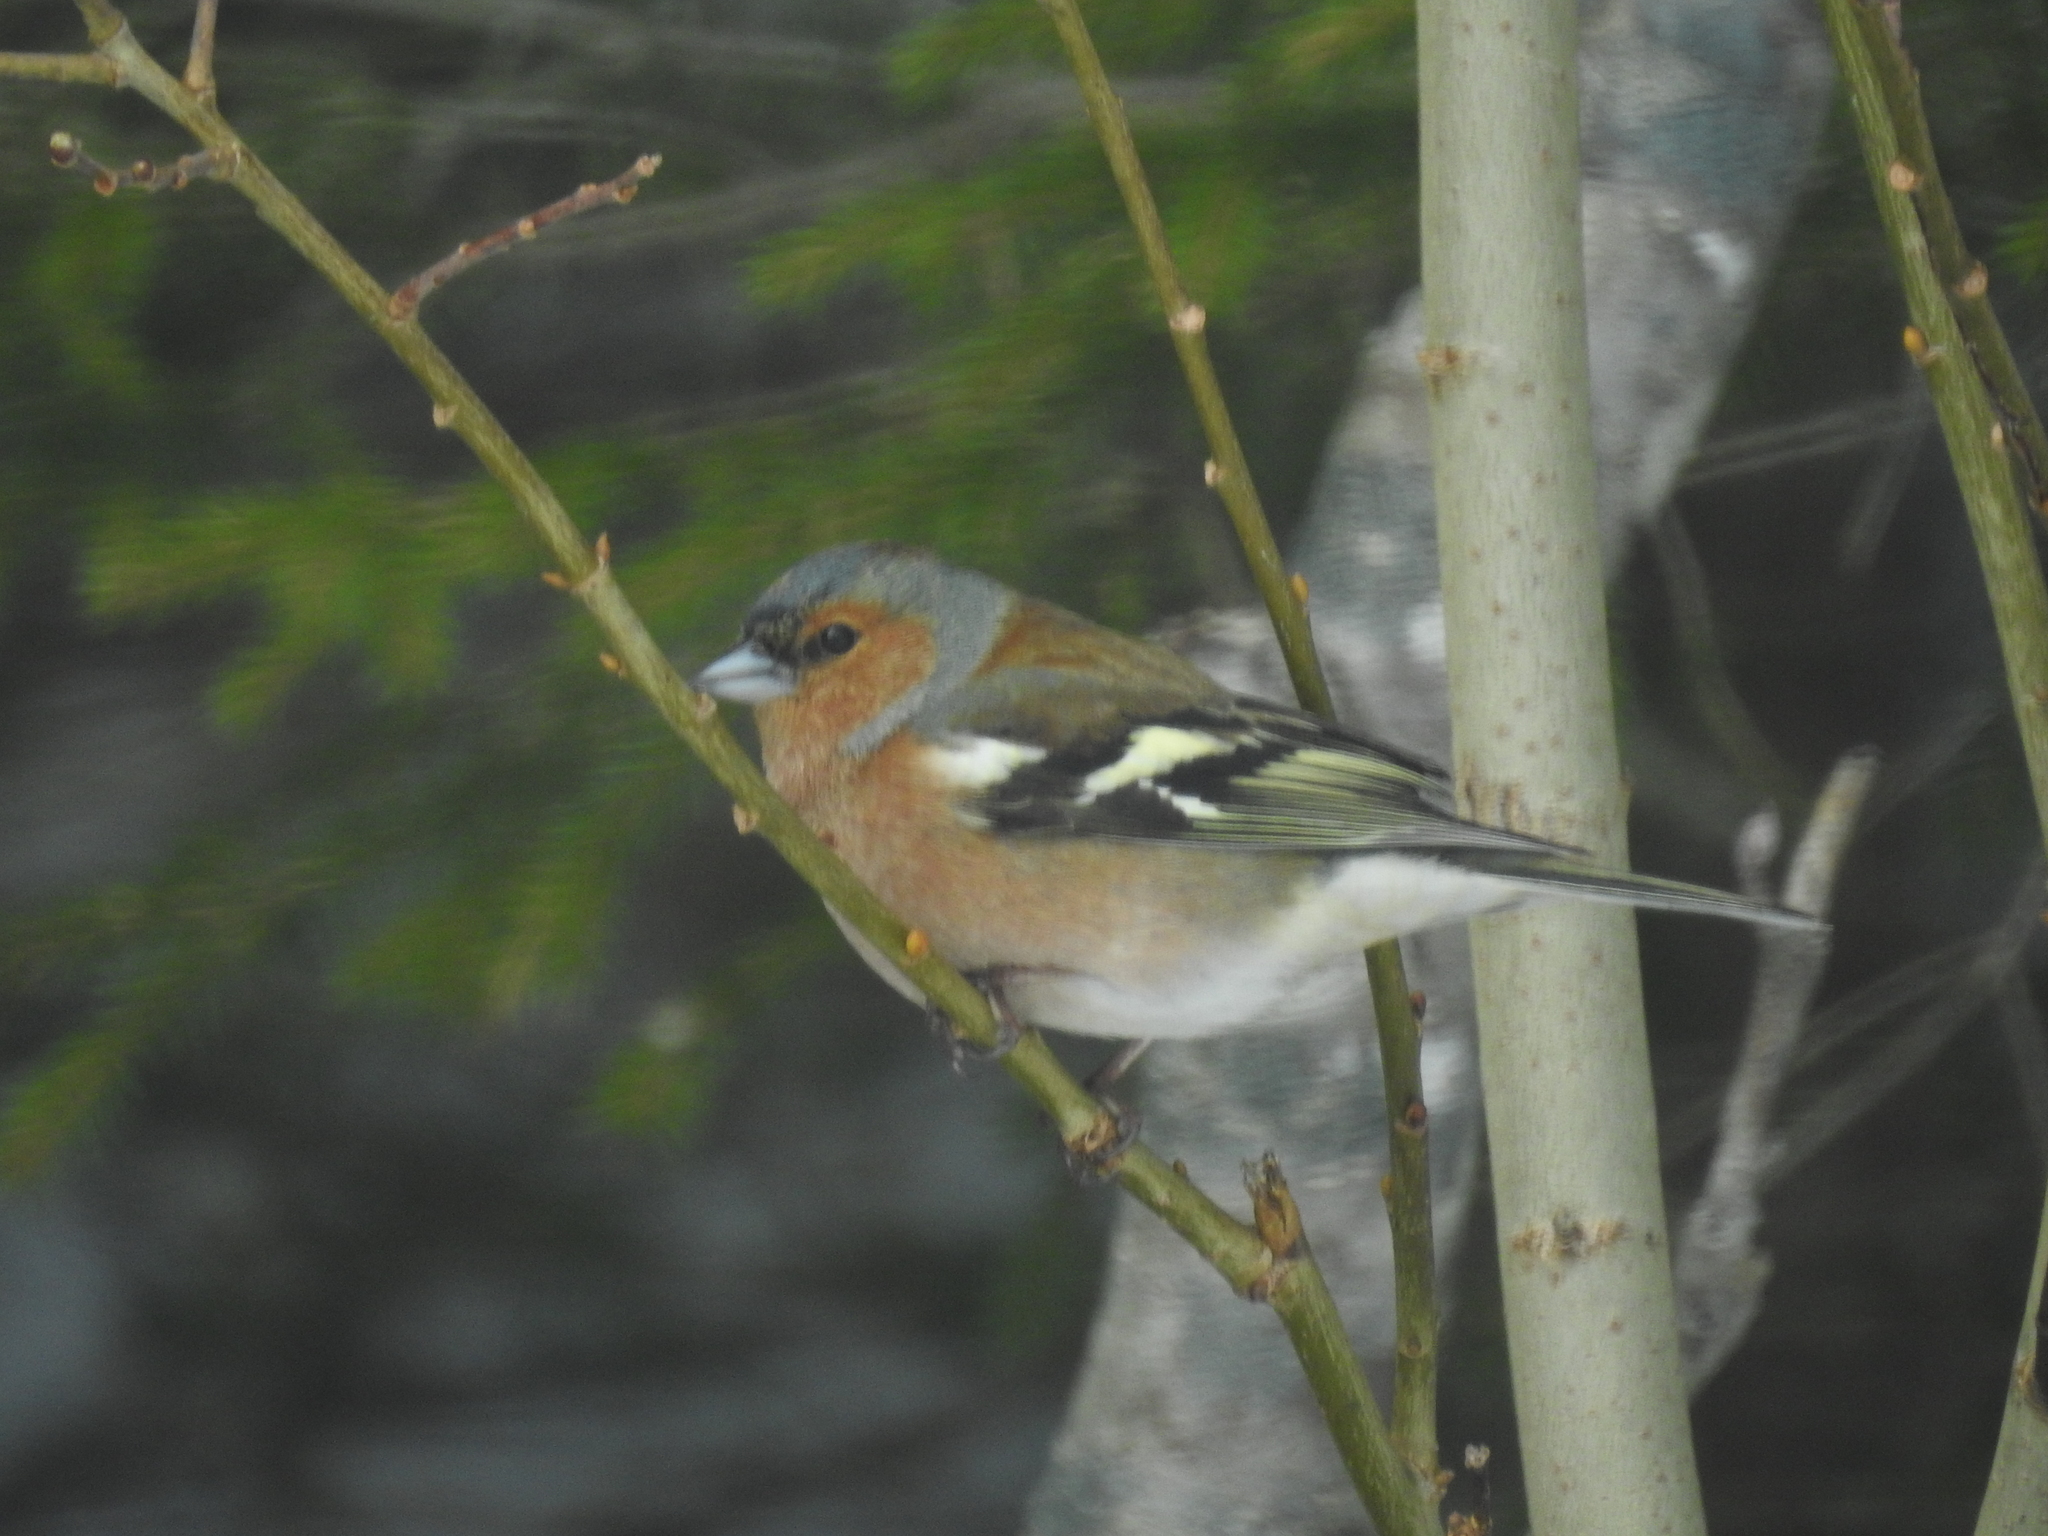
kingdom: Animalia
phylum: Chordata
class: Aves
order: Passeriformes
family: Fringillidae
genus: Fringilla
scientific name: Fringilla coelebs
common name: Common chaffinch
